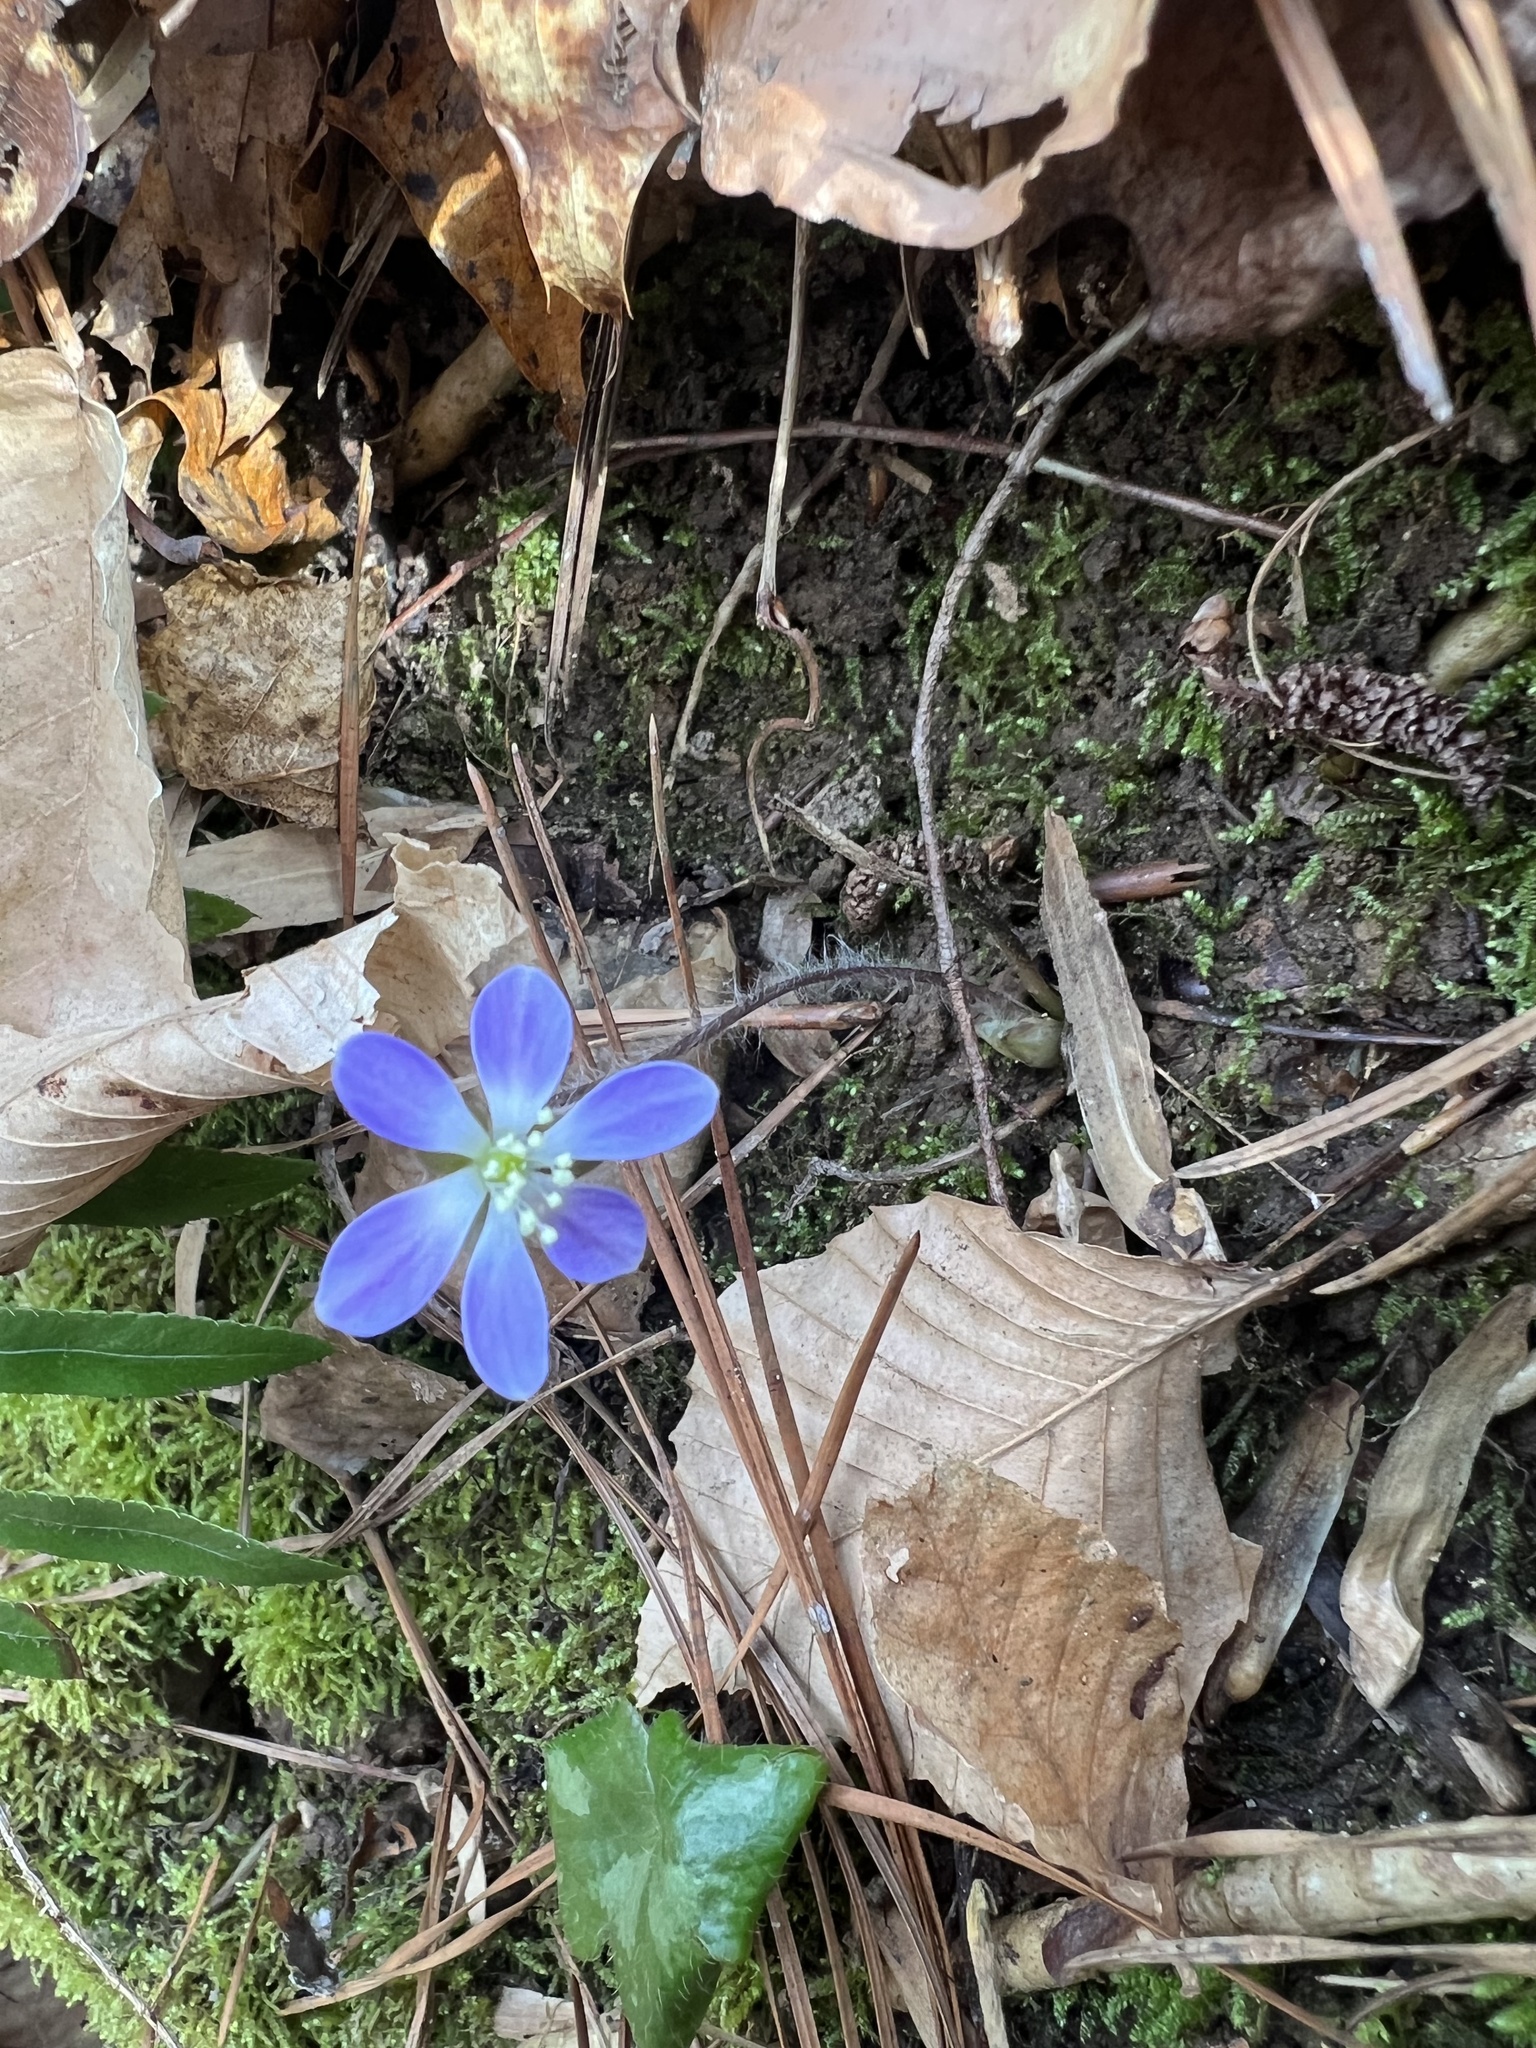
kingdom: Plantae
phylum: Tracheophyta
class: Magnoliopsida
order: Ranunculales
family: Ranunculaceae
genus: Hepatica
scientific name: Hepatica americana
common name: American hepatica
